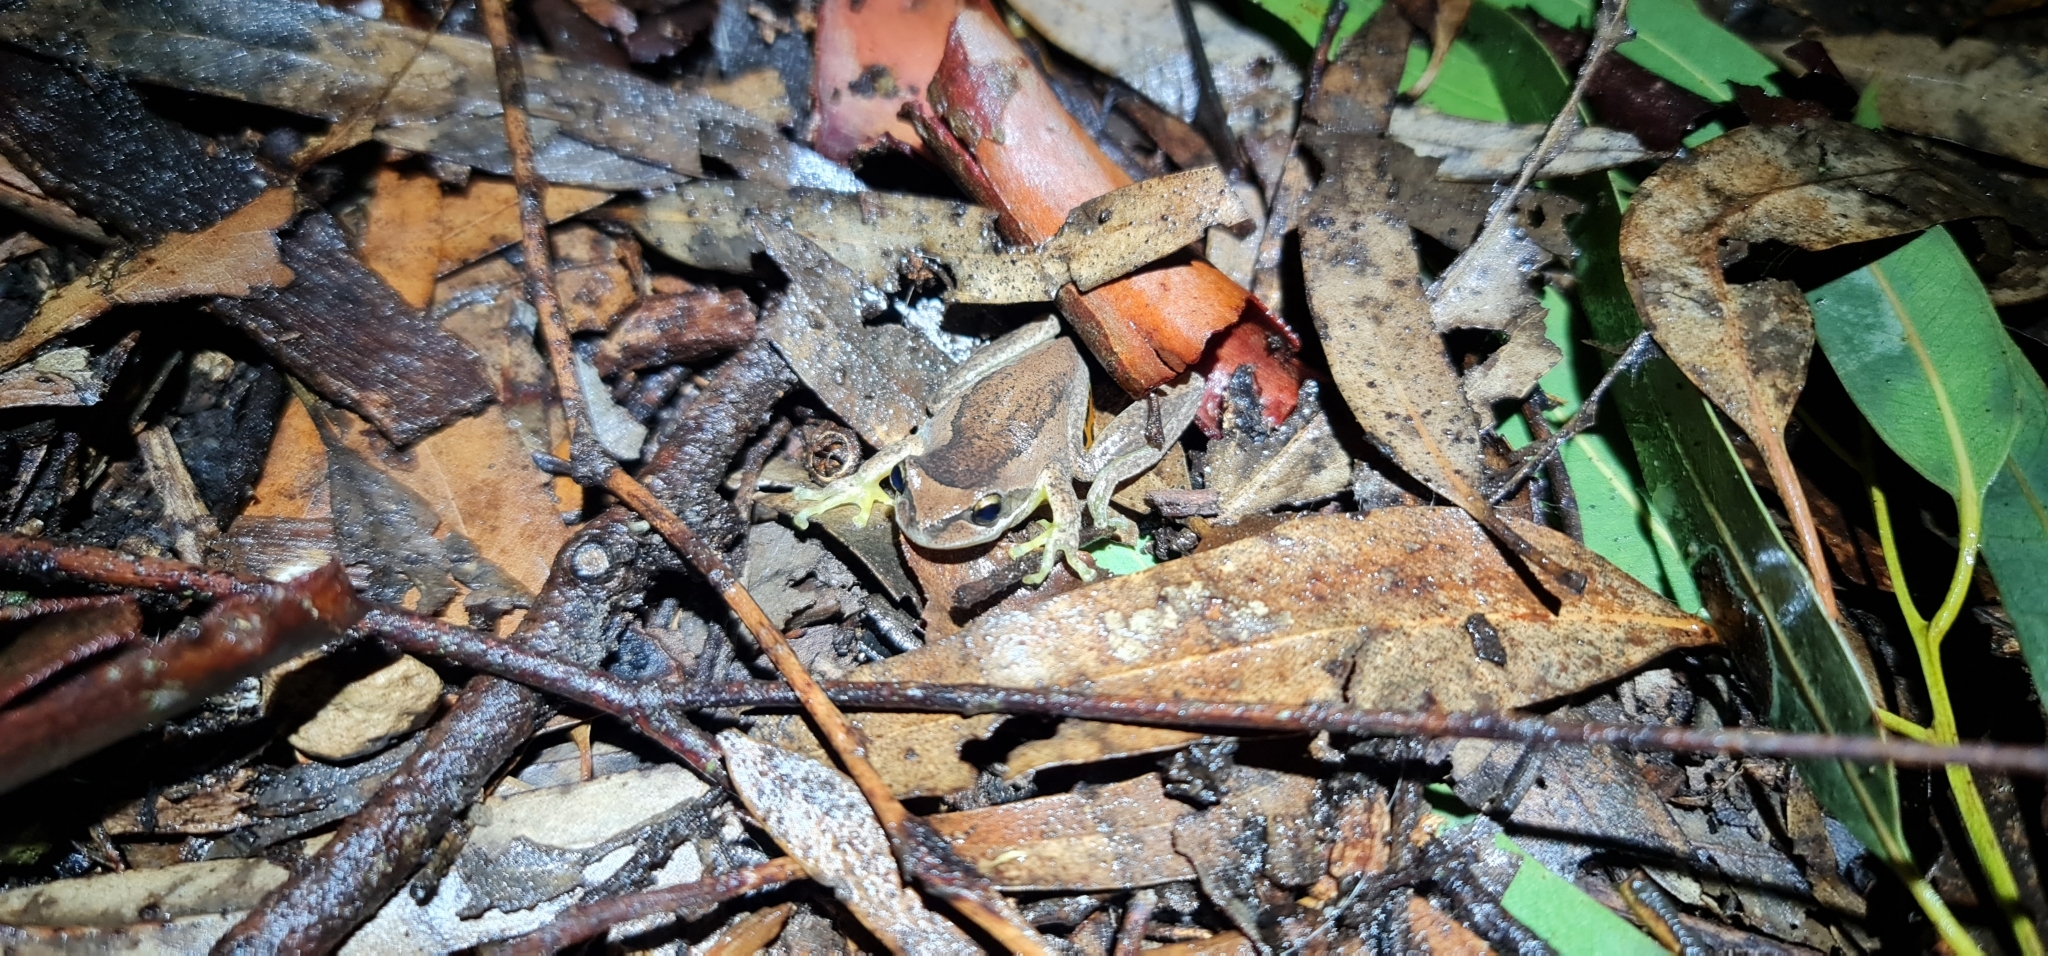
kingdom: Animalia
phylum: Chordata
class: Amphibia
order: Anura
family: Pelodryadidae
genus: Litoria
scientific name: Litoria
